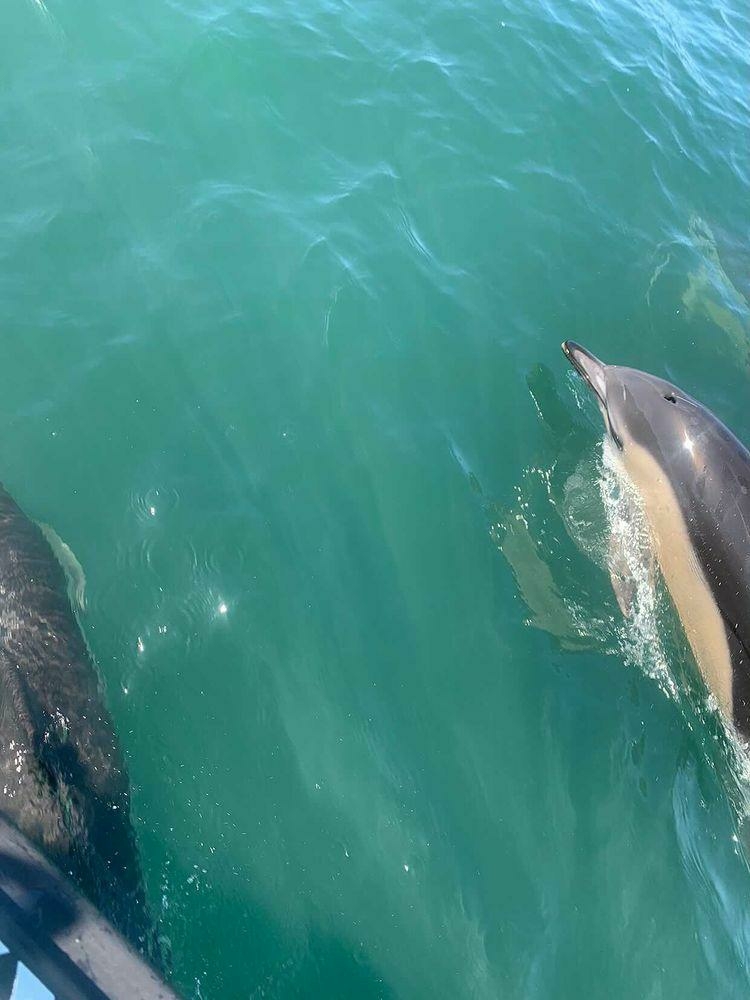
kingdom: Animalia
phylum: Chordata
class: Mammalia
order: Cetacea
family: Delphinidae
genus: Delphinus
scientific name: Delphinus delphis
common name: Common dolphin
